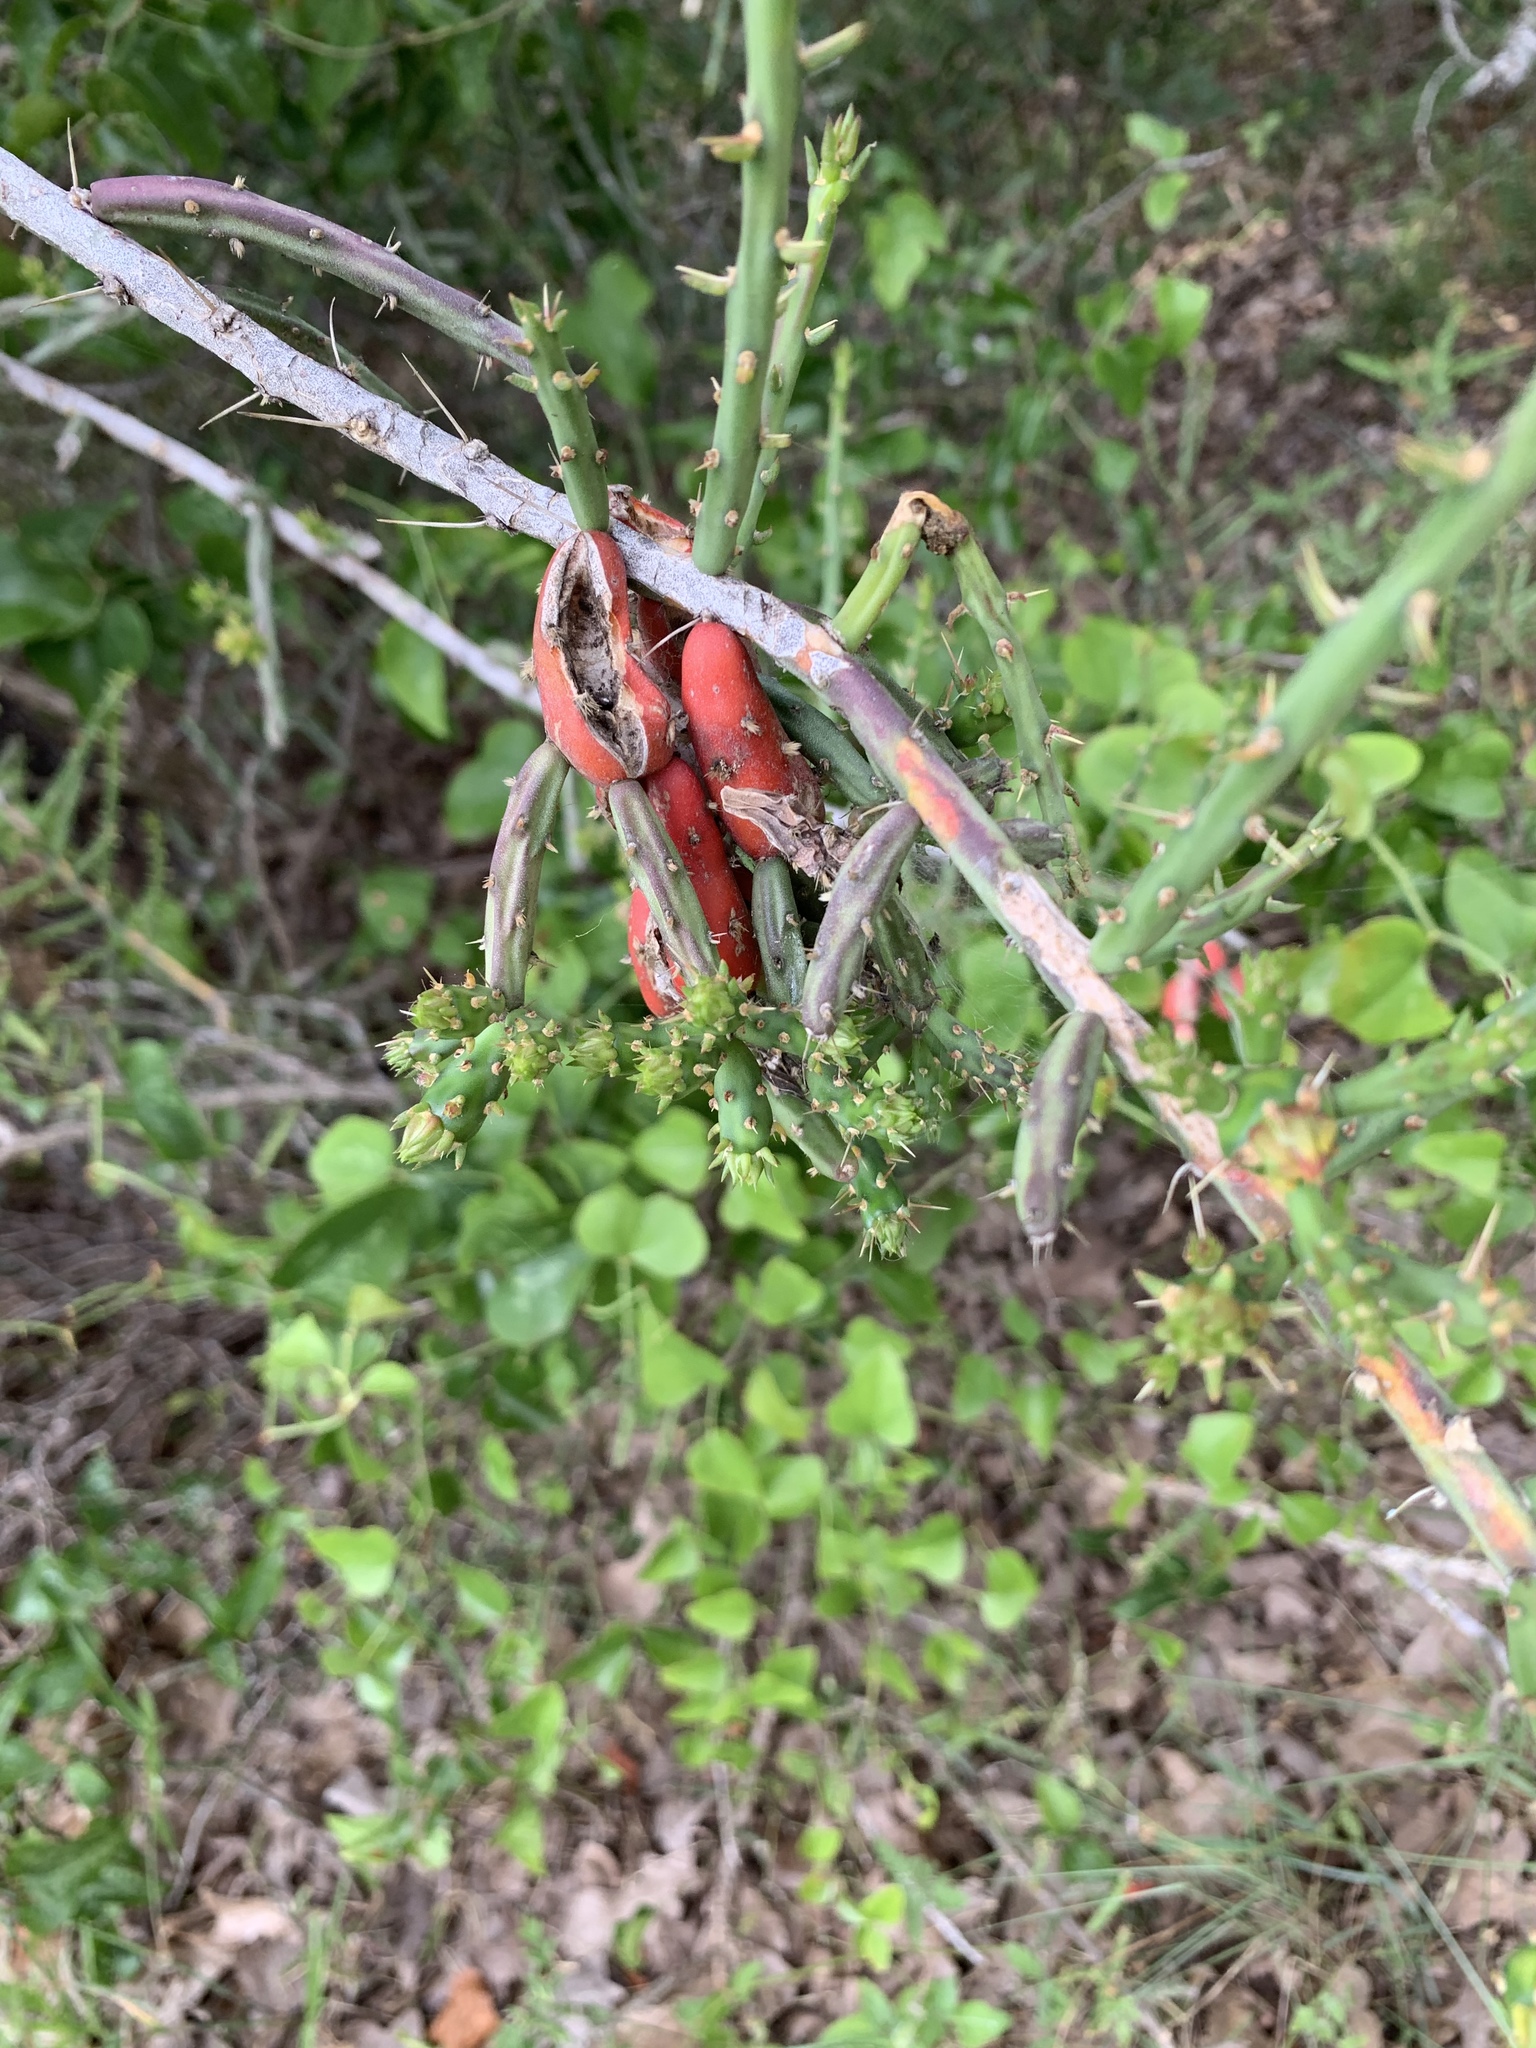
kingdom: Plantae
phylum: Tracheophyta
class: Magnoliopsida
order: Caryophyllales
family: Cactaceae
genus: Cylindropuntia
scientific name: Cylindropuntia leptocaulis
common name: Christmas cactus
